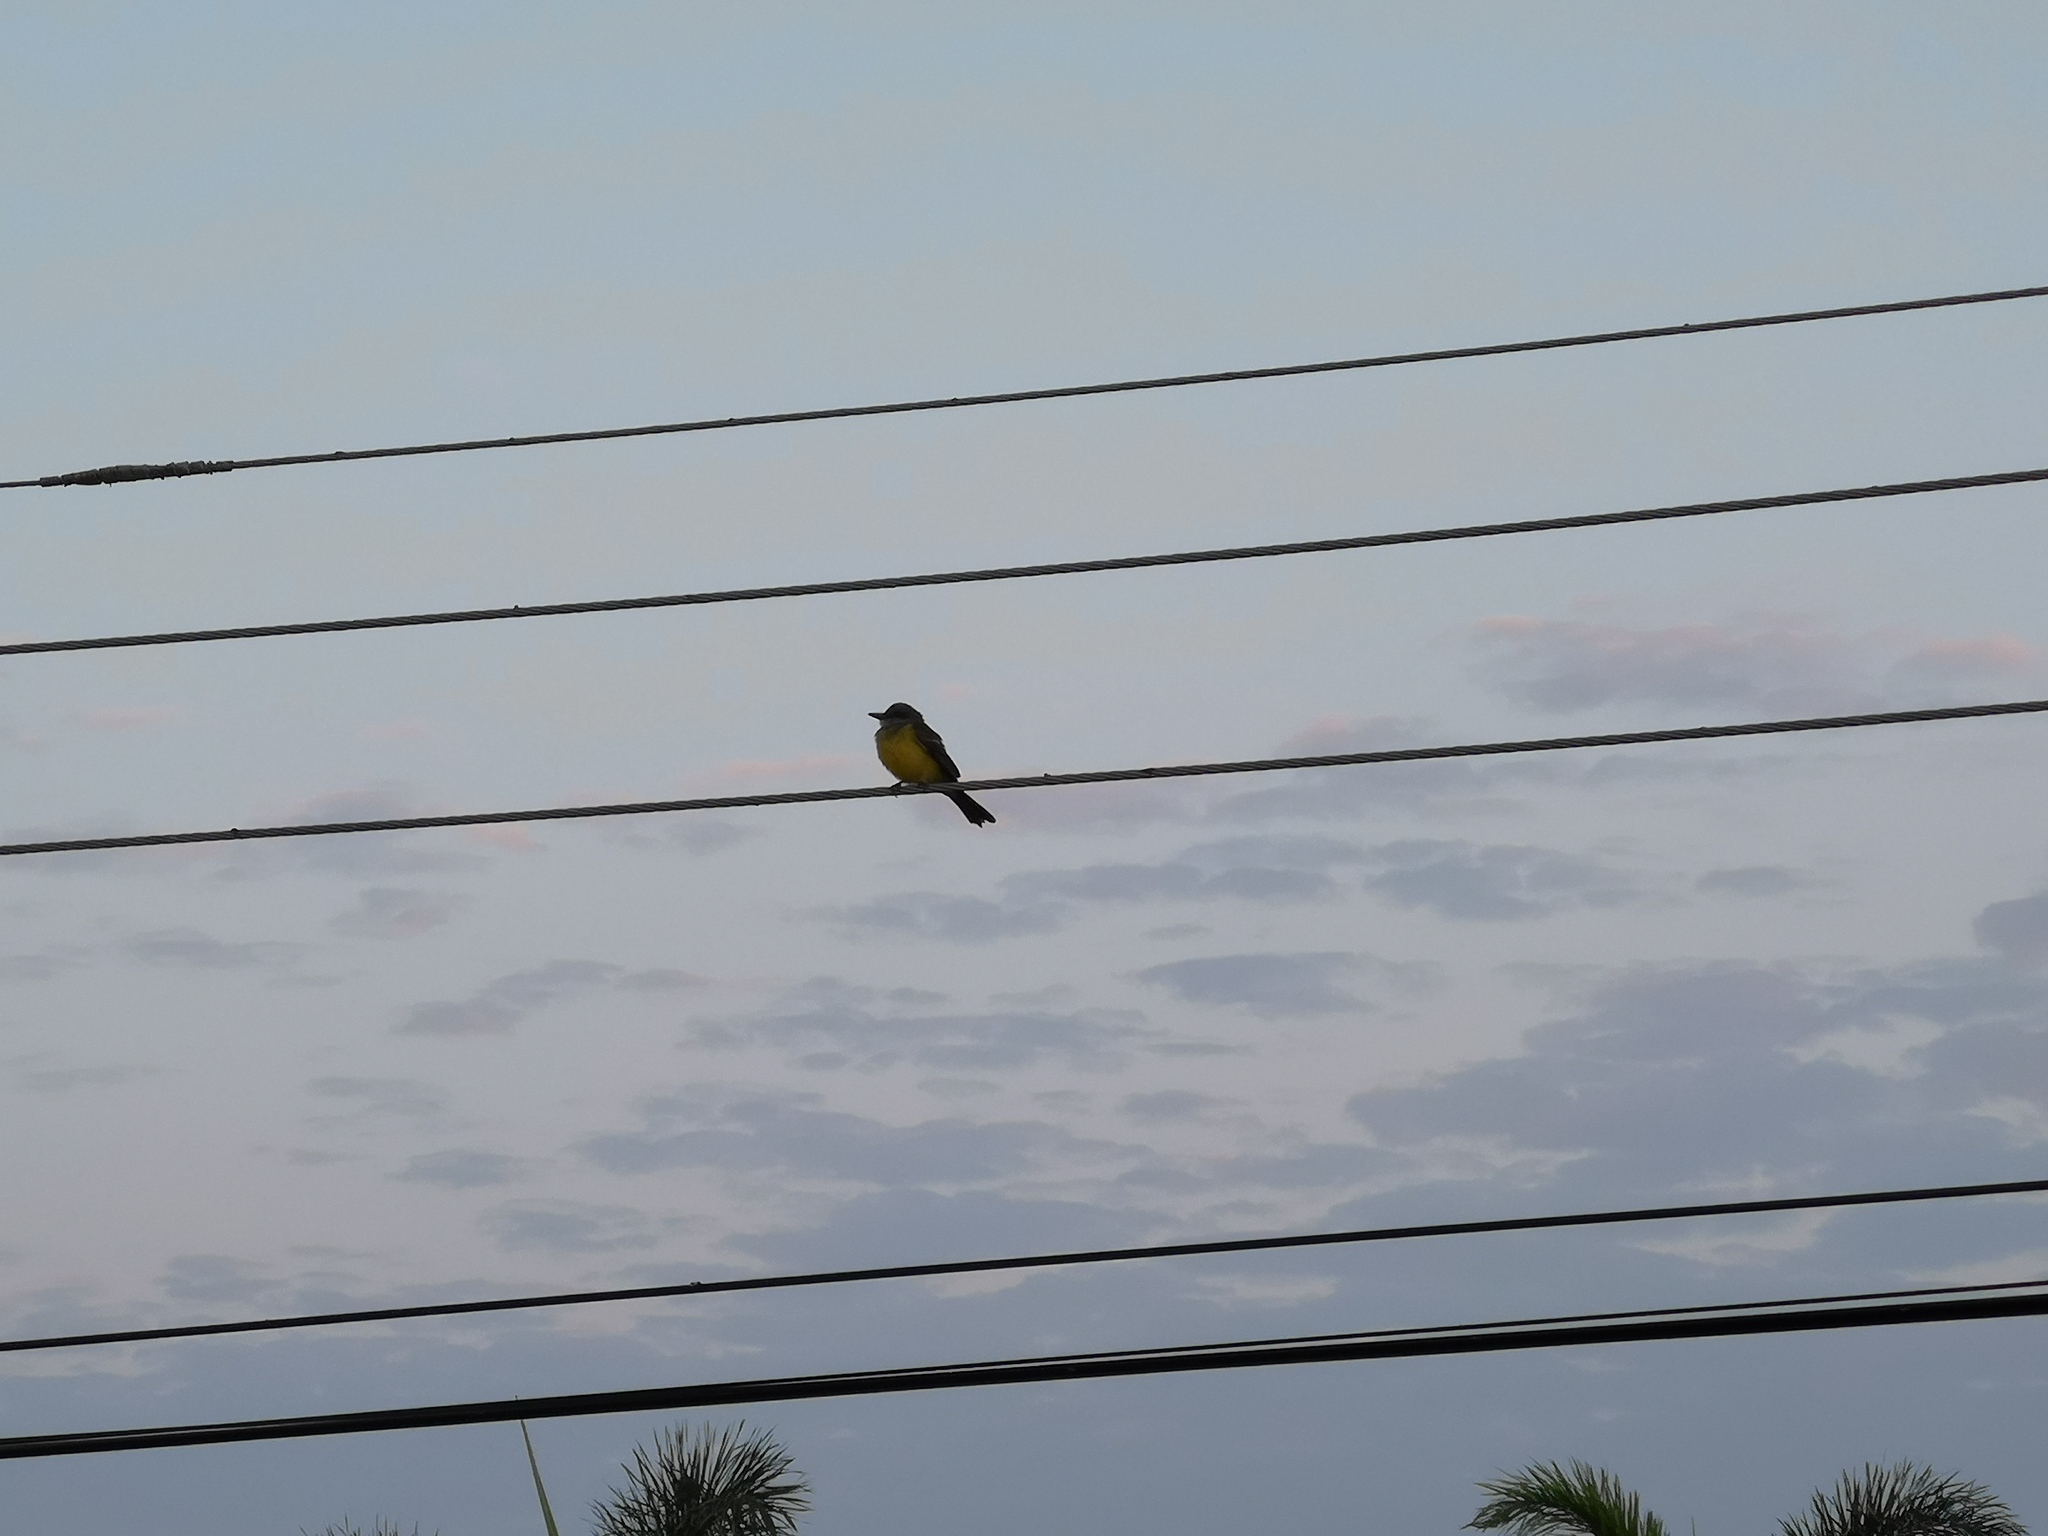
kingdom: Animalia
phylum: Chordata
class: Aves
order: Passeriformes
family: Tyrannidae
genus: Tyrannus
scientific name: Tyrannus melancholicus
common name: Tropical kingbird
